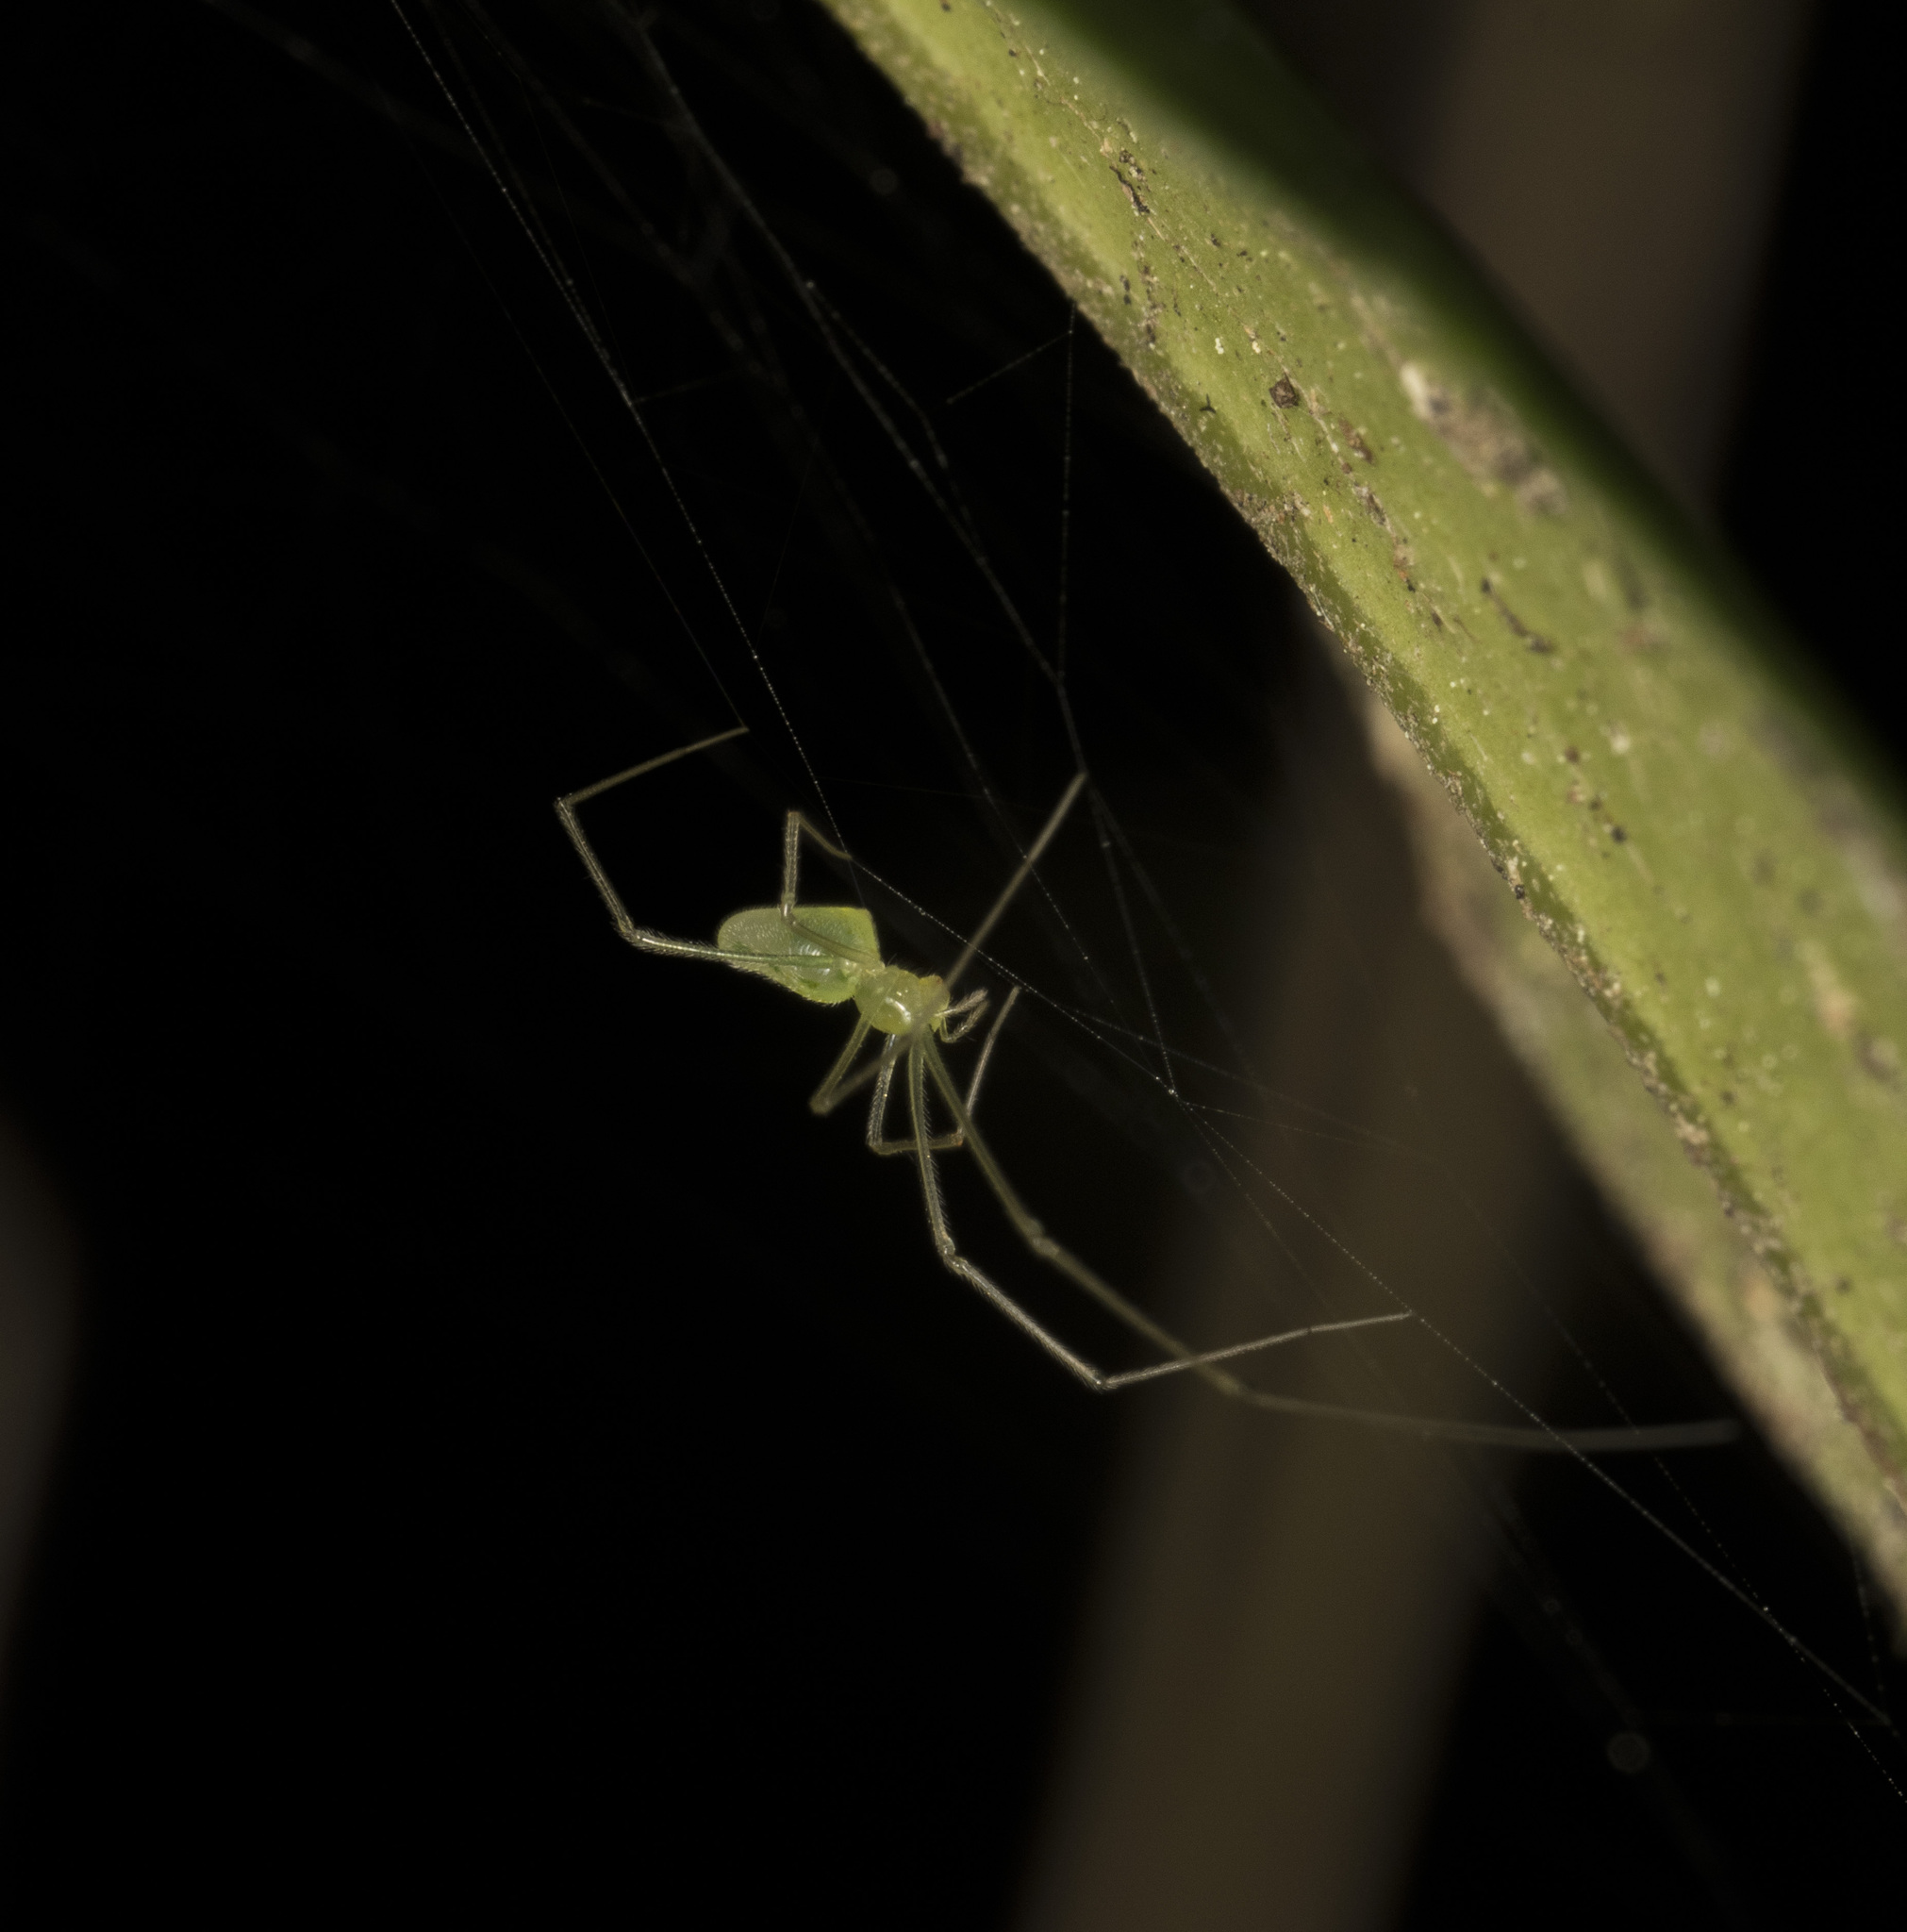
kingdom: Animalia
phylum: Arthropoda
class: Arachnida
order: Araneae
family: Physoglenidae
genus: Chileotaxus
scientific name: Chileotaxus sans
